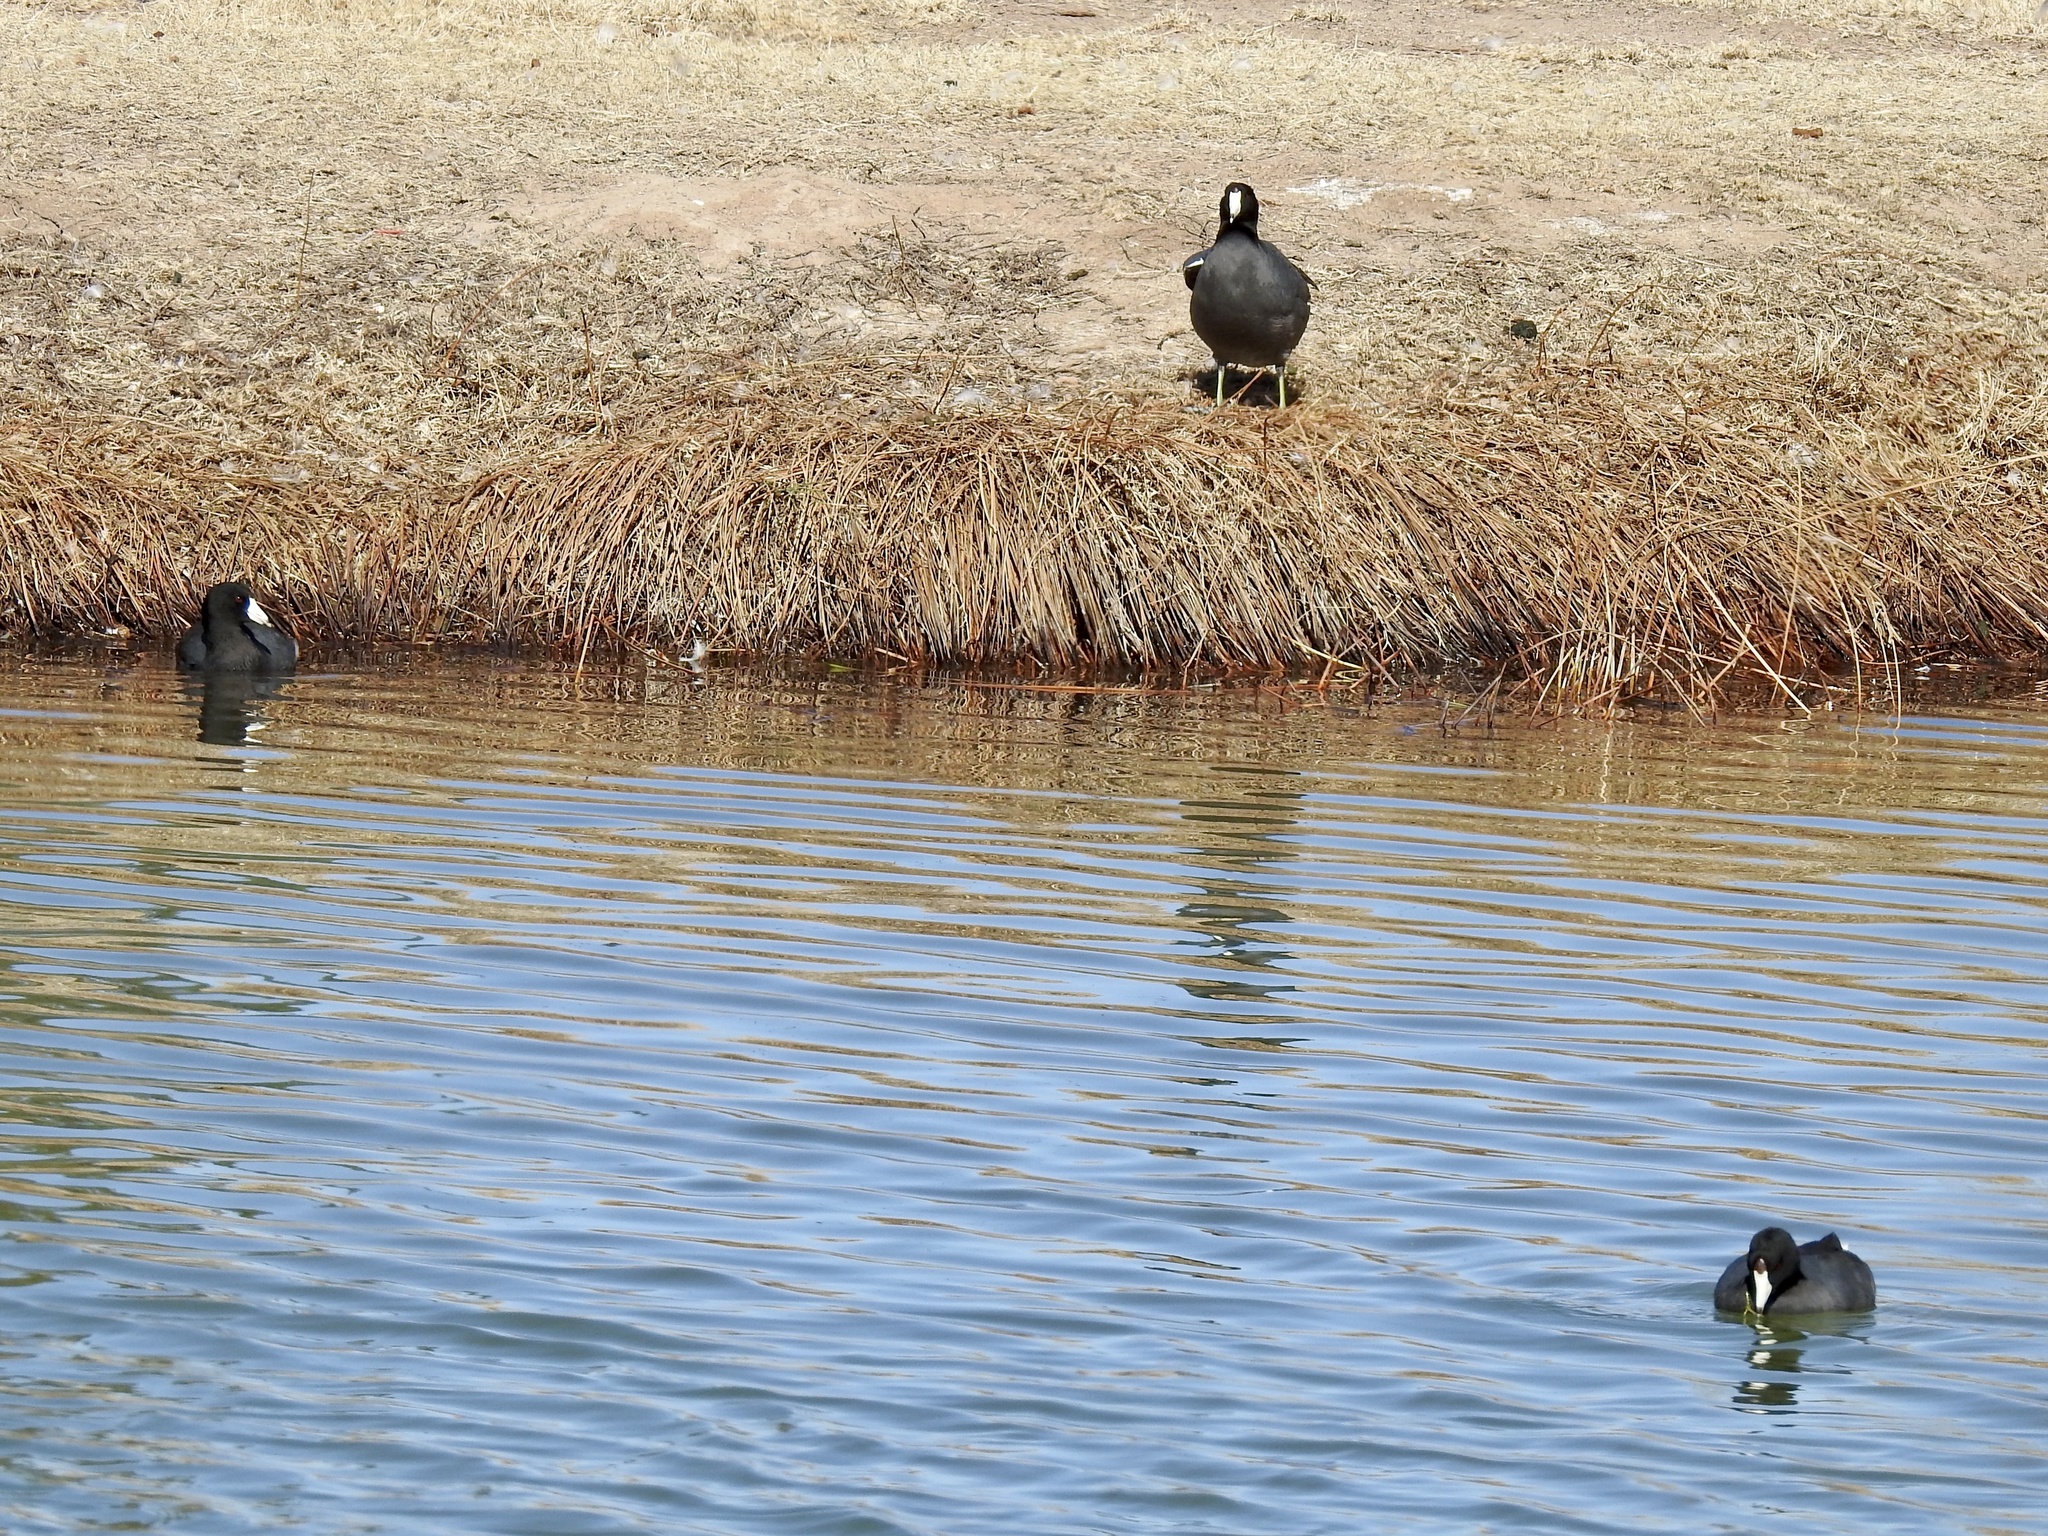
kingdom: Animalia
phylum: Chordata
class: Aves
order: Gruiformes
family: Rallidae
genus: Fulica
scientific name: Fulica americana
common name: American coot
